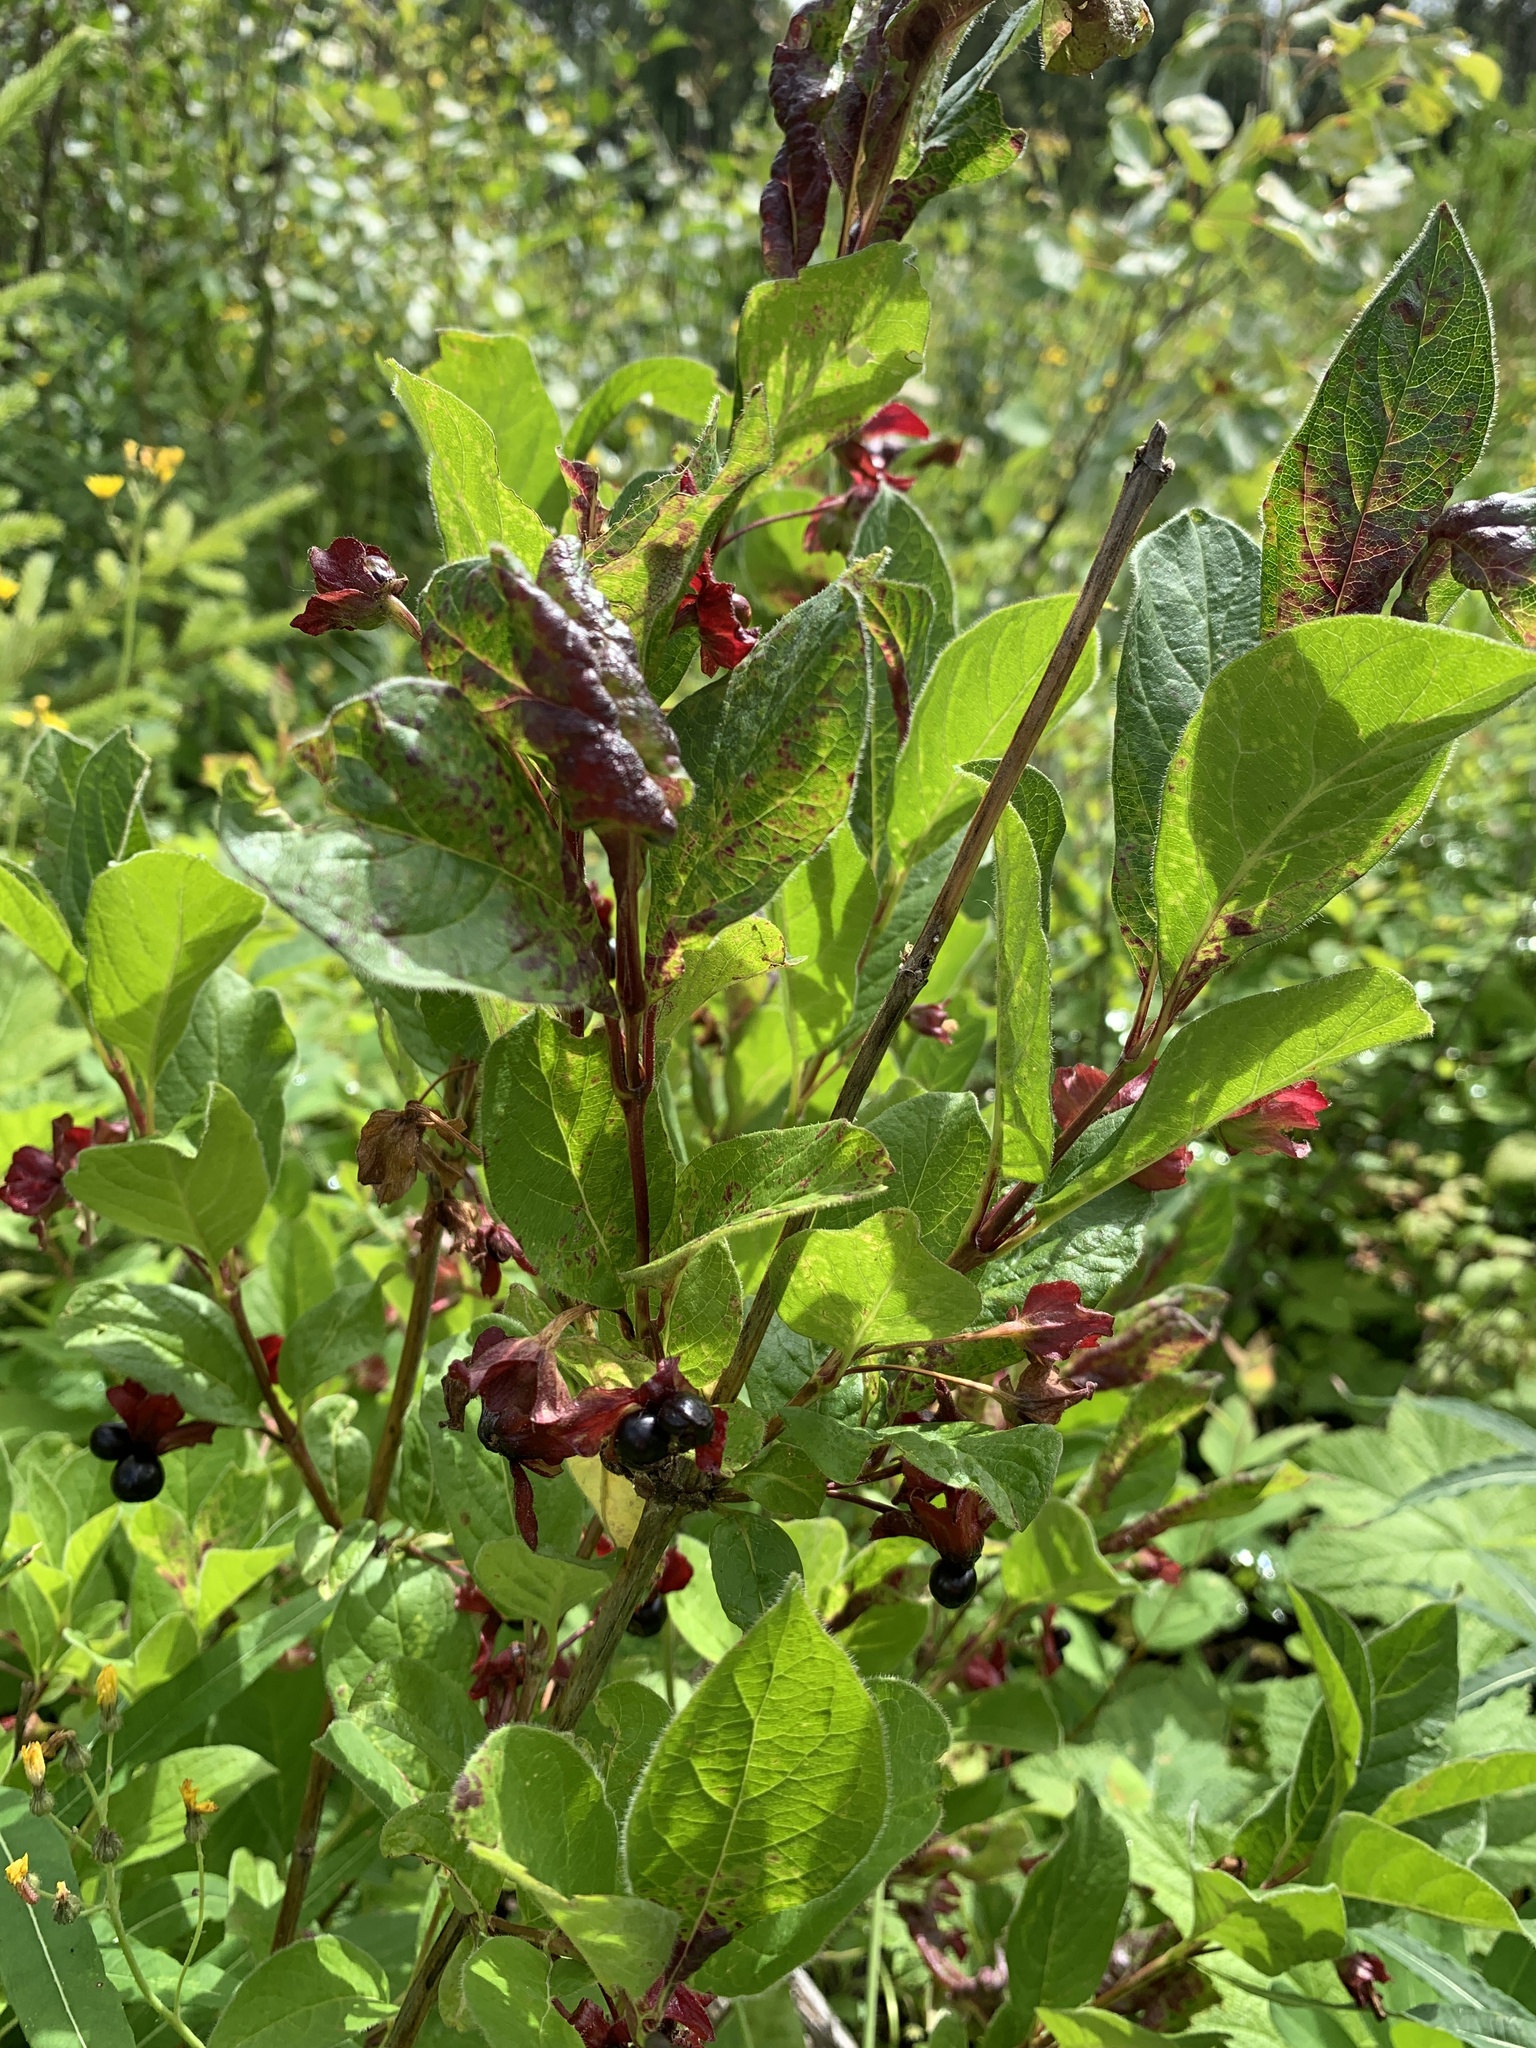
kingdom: Plantae
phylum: Tracheophyta
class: Magnoliopsida
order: Dipsacales
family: Caprifoliaceae
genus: Lonicera
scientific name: Lonicera involucrata
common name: Californian honeysuckle
